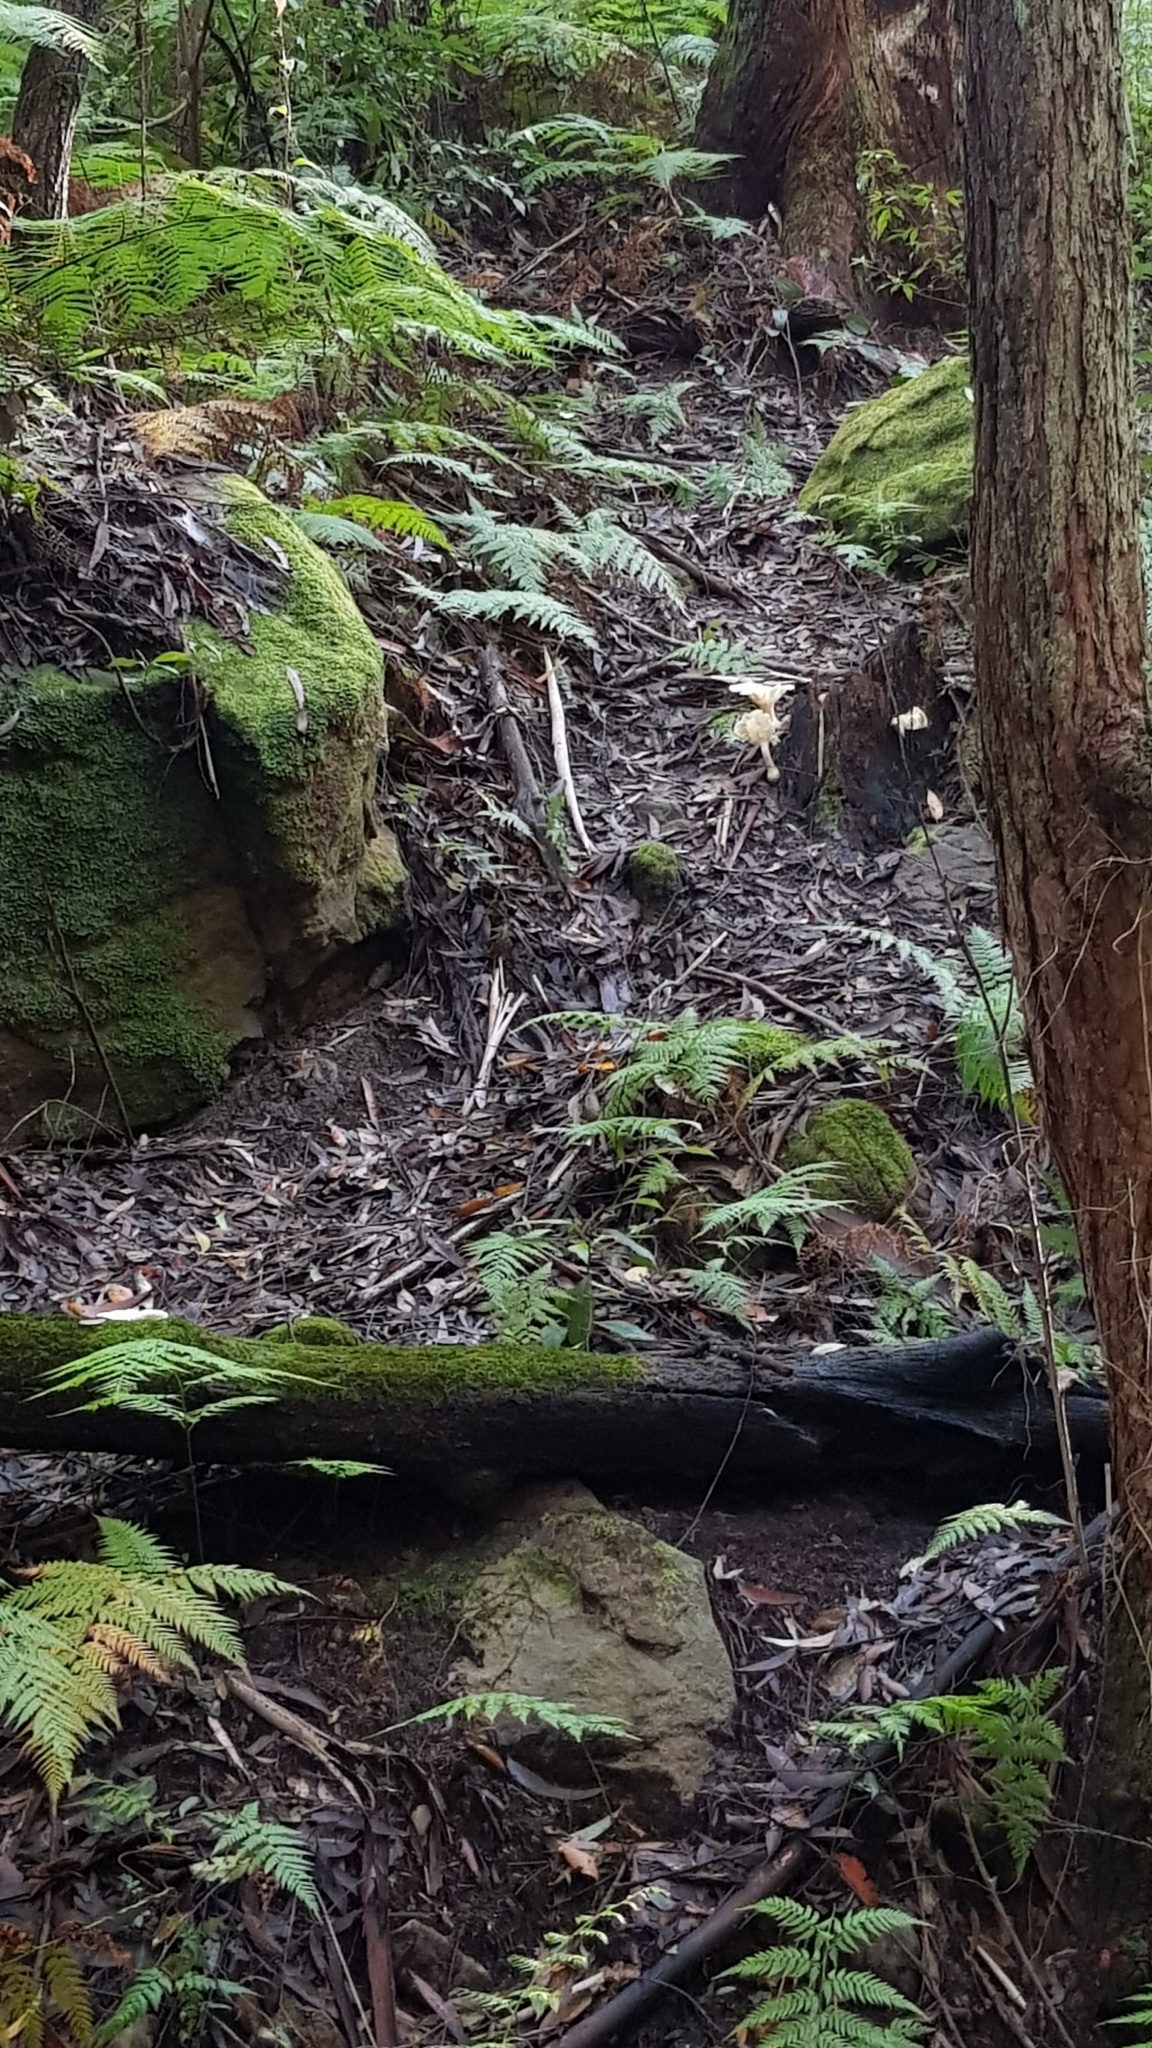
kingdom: Fungi
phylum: Basidiomycota
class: Agaricomycetes
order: Agaricales
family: Omphalotaceae
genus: Omphalotus
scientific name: Omphalotus nidiformis
